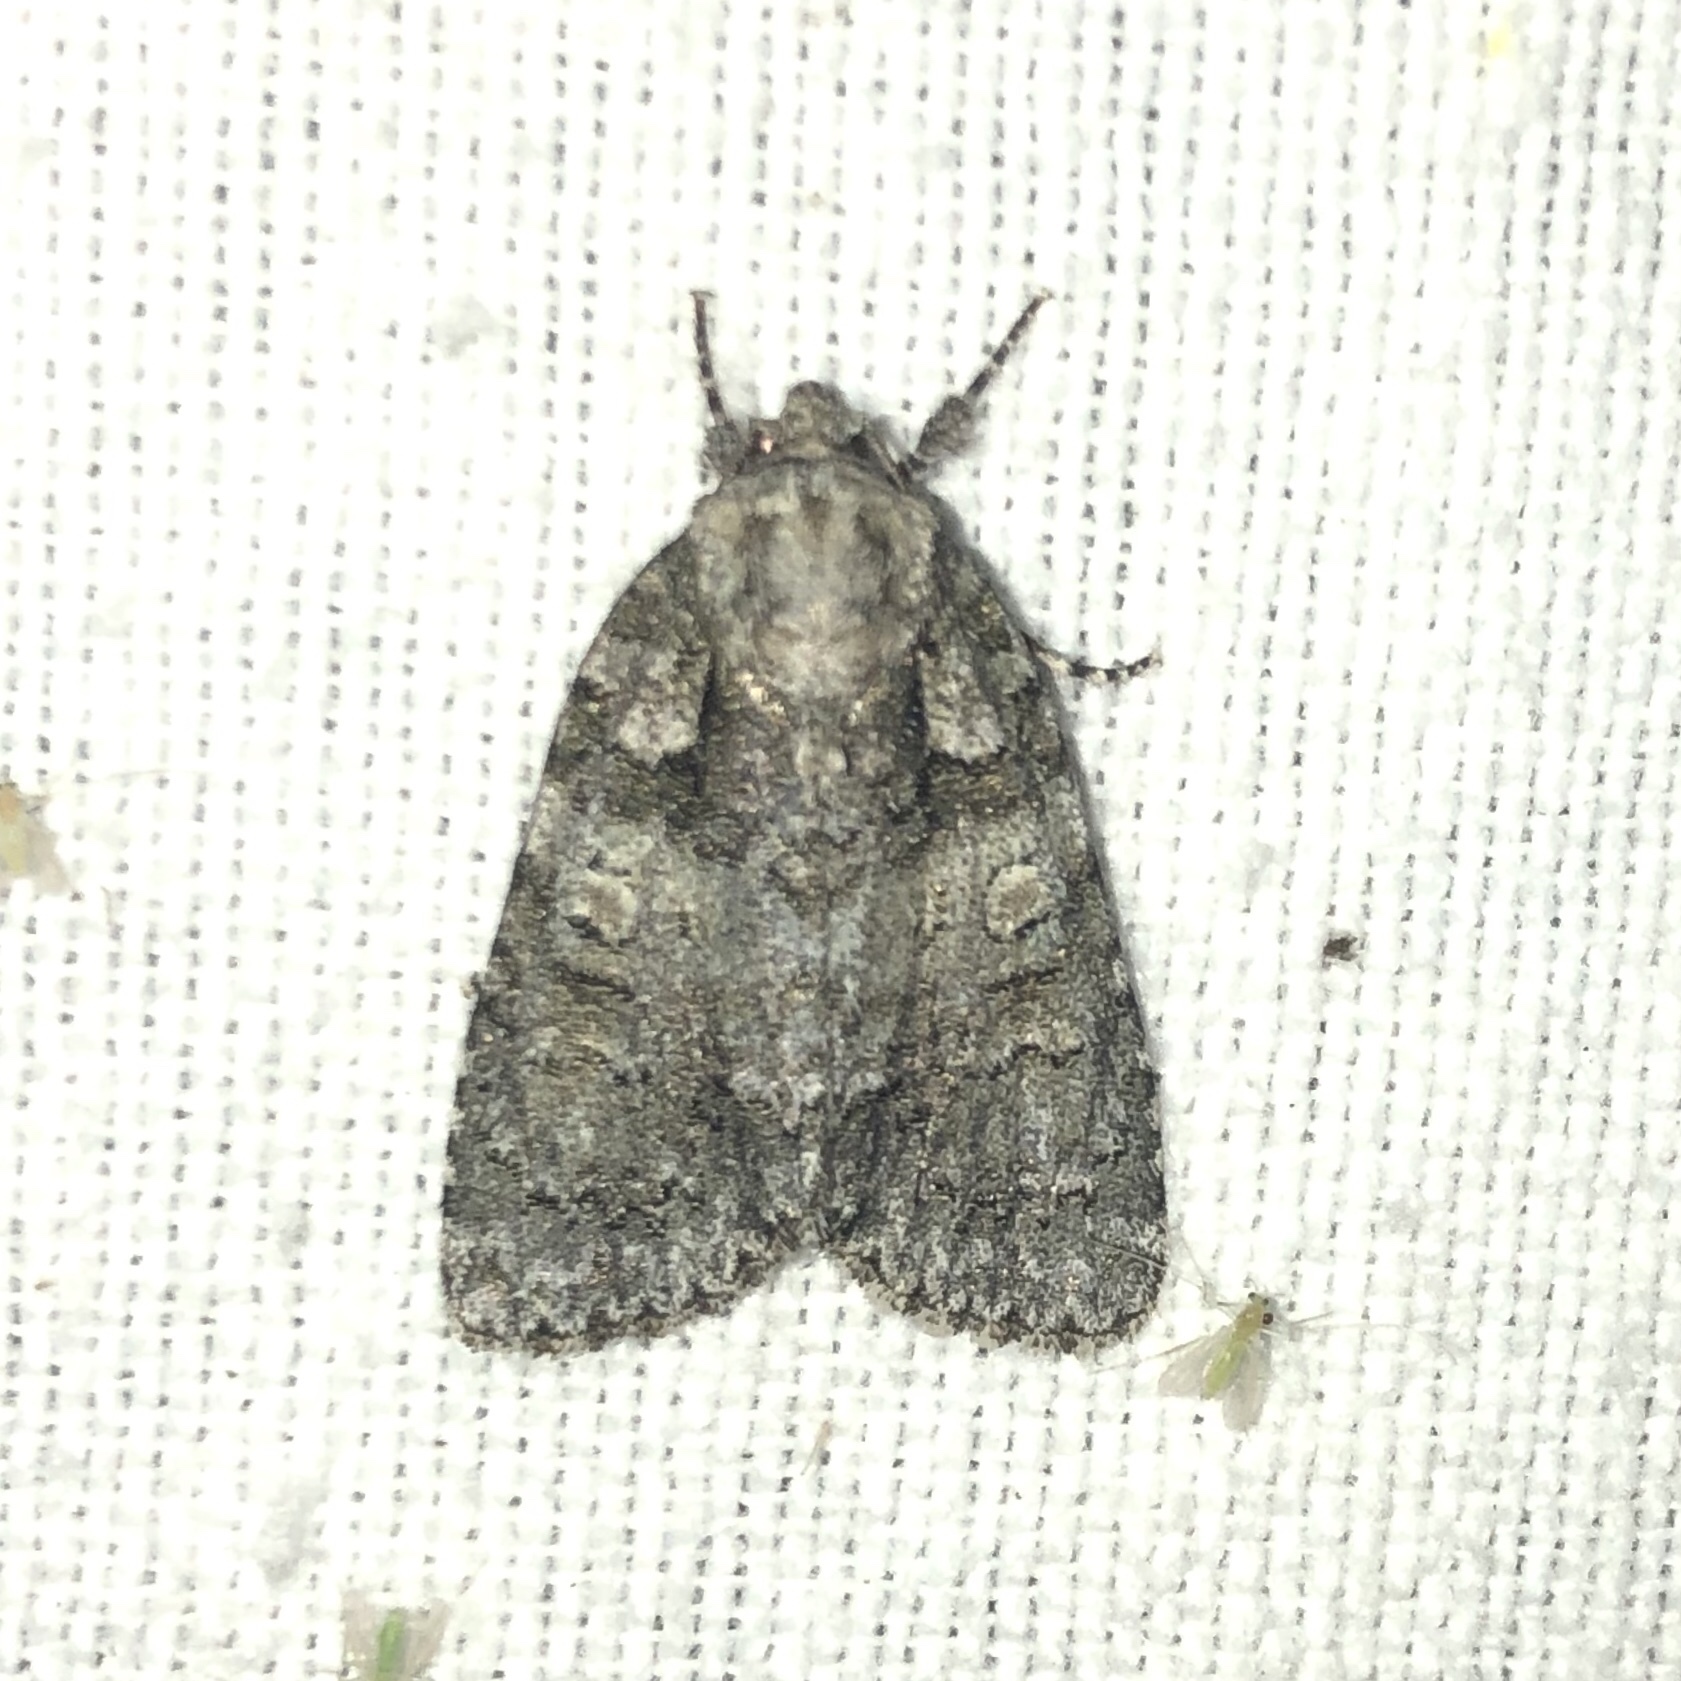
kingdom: Animalia
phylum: Arthropoda
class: Insecta
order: Lepidoptera
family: Noctuidae
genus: Acronicta
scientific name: Acronicta increta
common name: Eclipsed oak dagger
